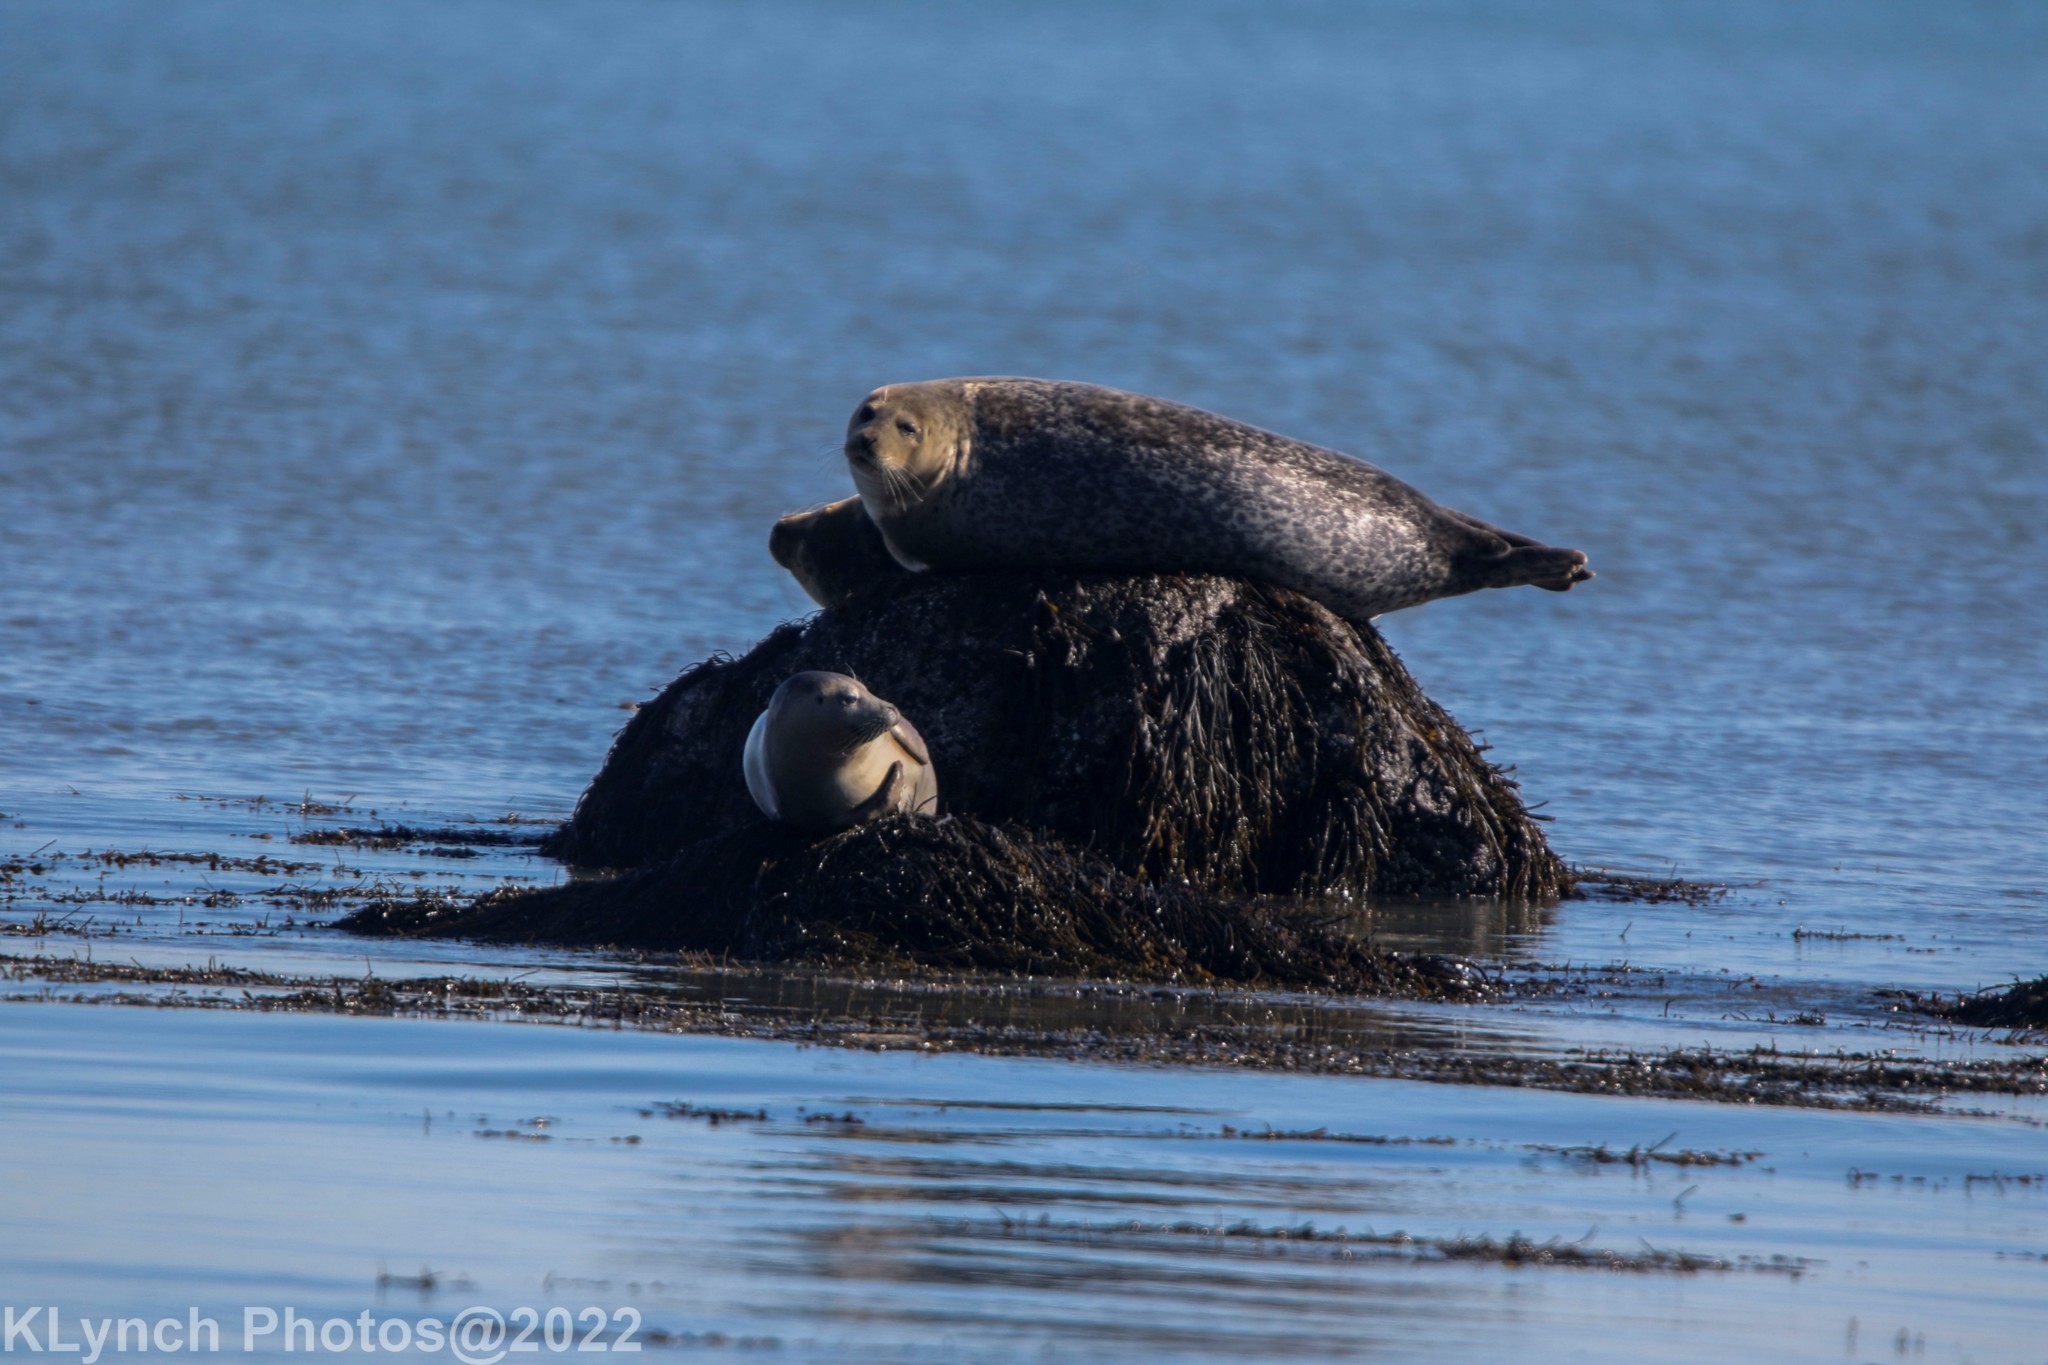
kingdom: Animalia
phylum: Chordata
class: Mammalia
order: Carnivora
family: Phocidae
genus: Phoca
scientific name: Phoca vitulina
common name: Harbor seal
